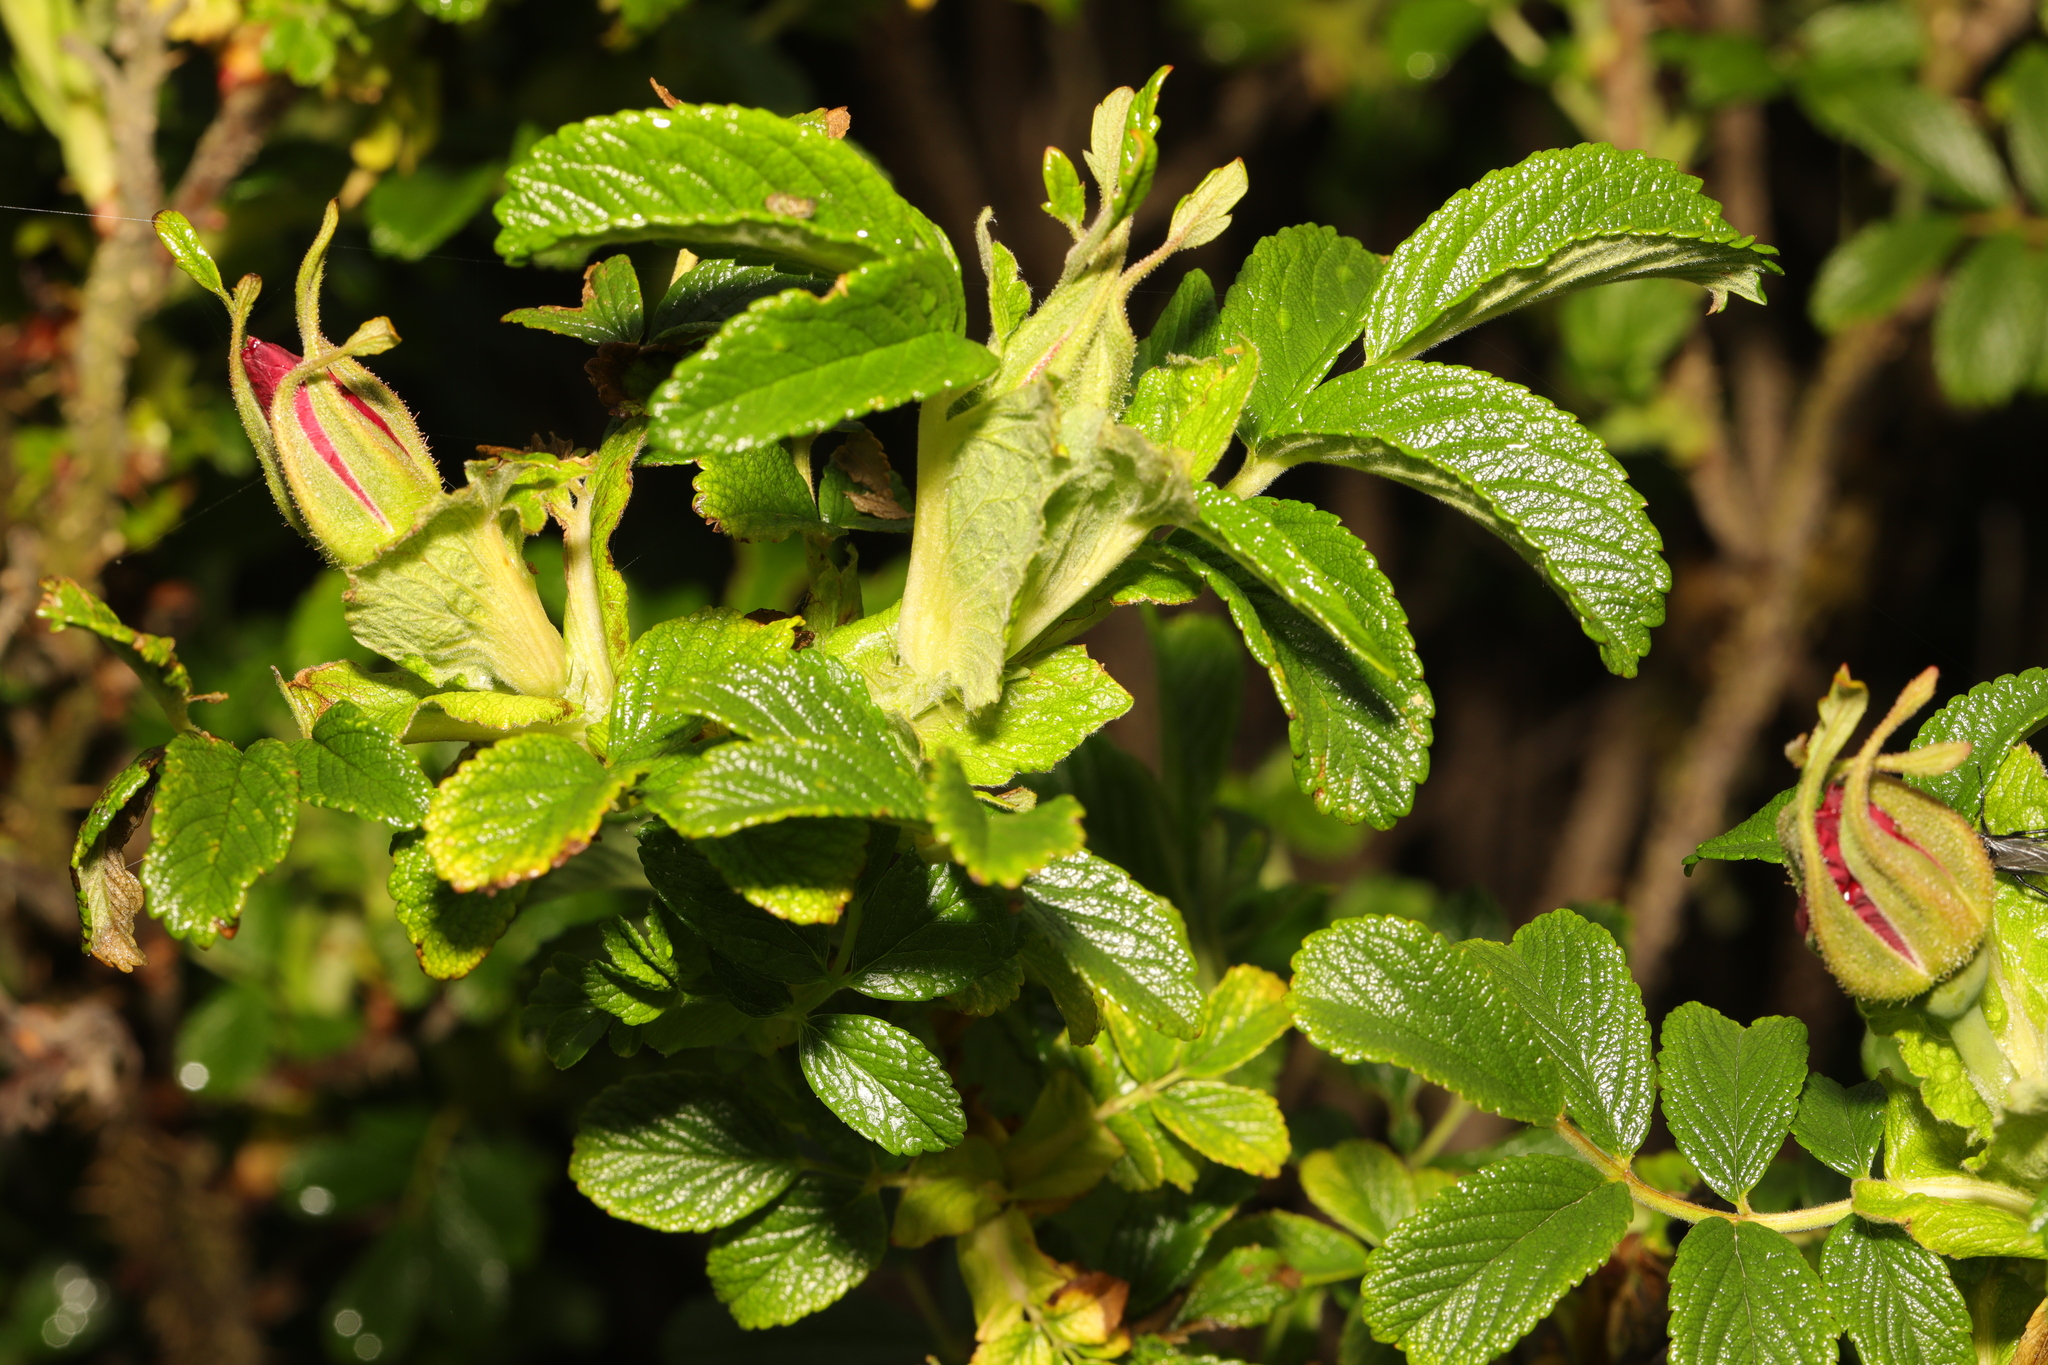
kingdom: Plantae
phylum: Tracheophyta
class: Magnoliopsida
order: Rosales
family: Rosaceae
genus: Rosa
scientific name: Rosa rugosa
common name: Japanese rose
